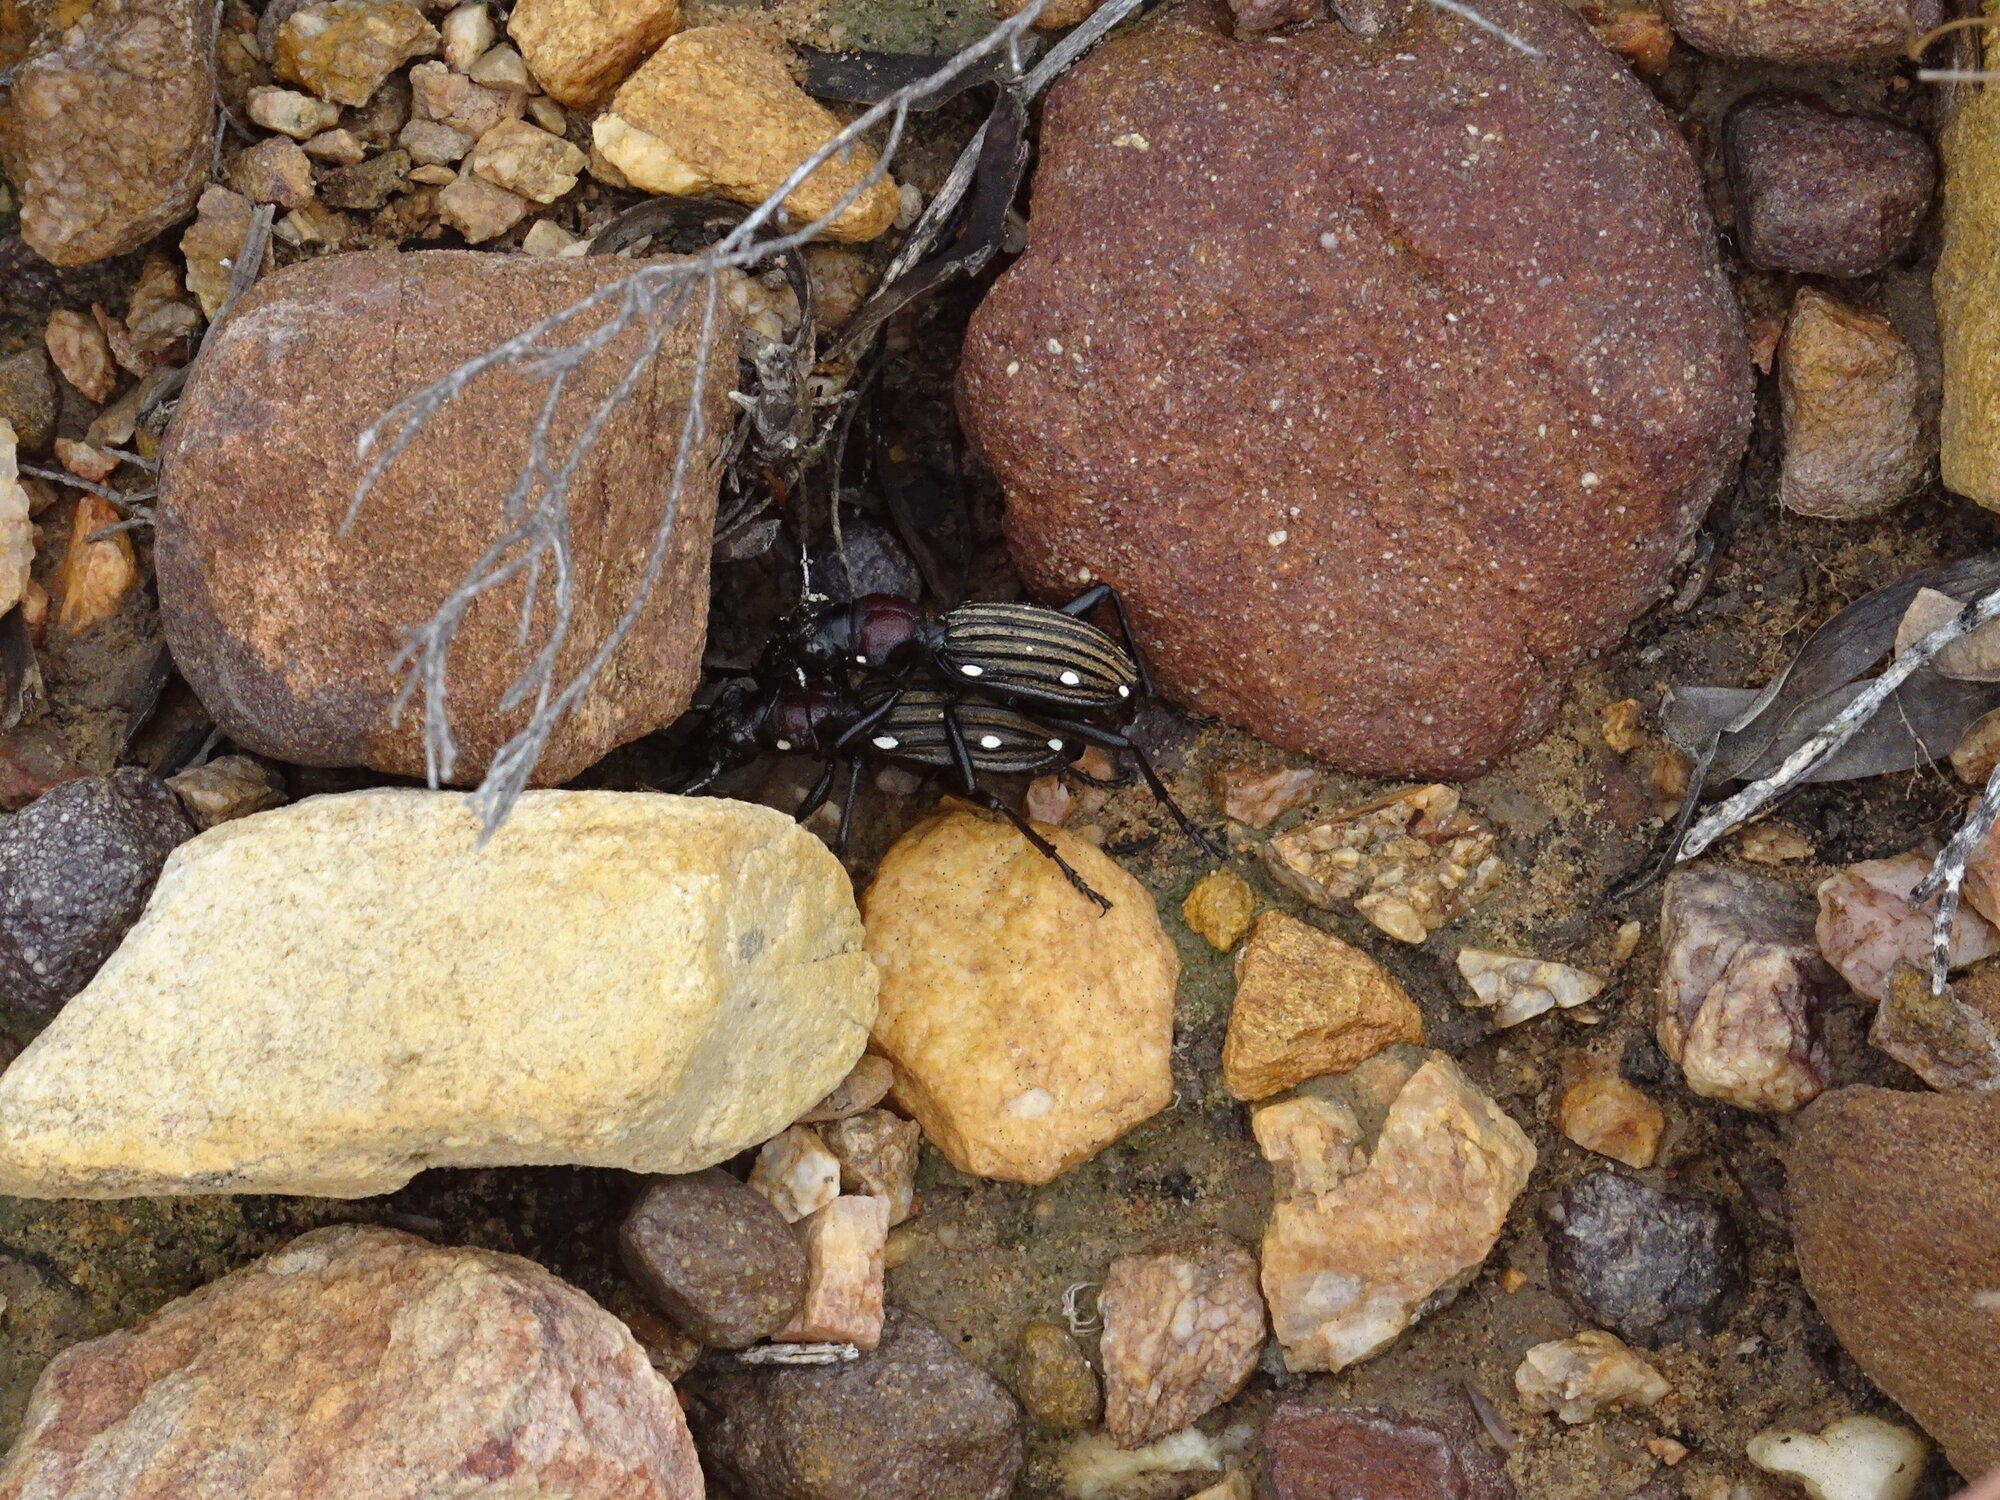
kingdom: Animalia
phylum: Arthropoda
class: Insecta
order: Coleoptera
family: Carabidae
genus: Anthia
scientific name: Anthia decemguttata
